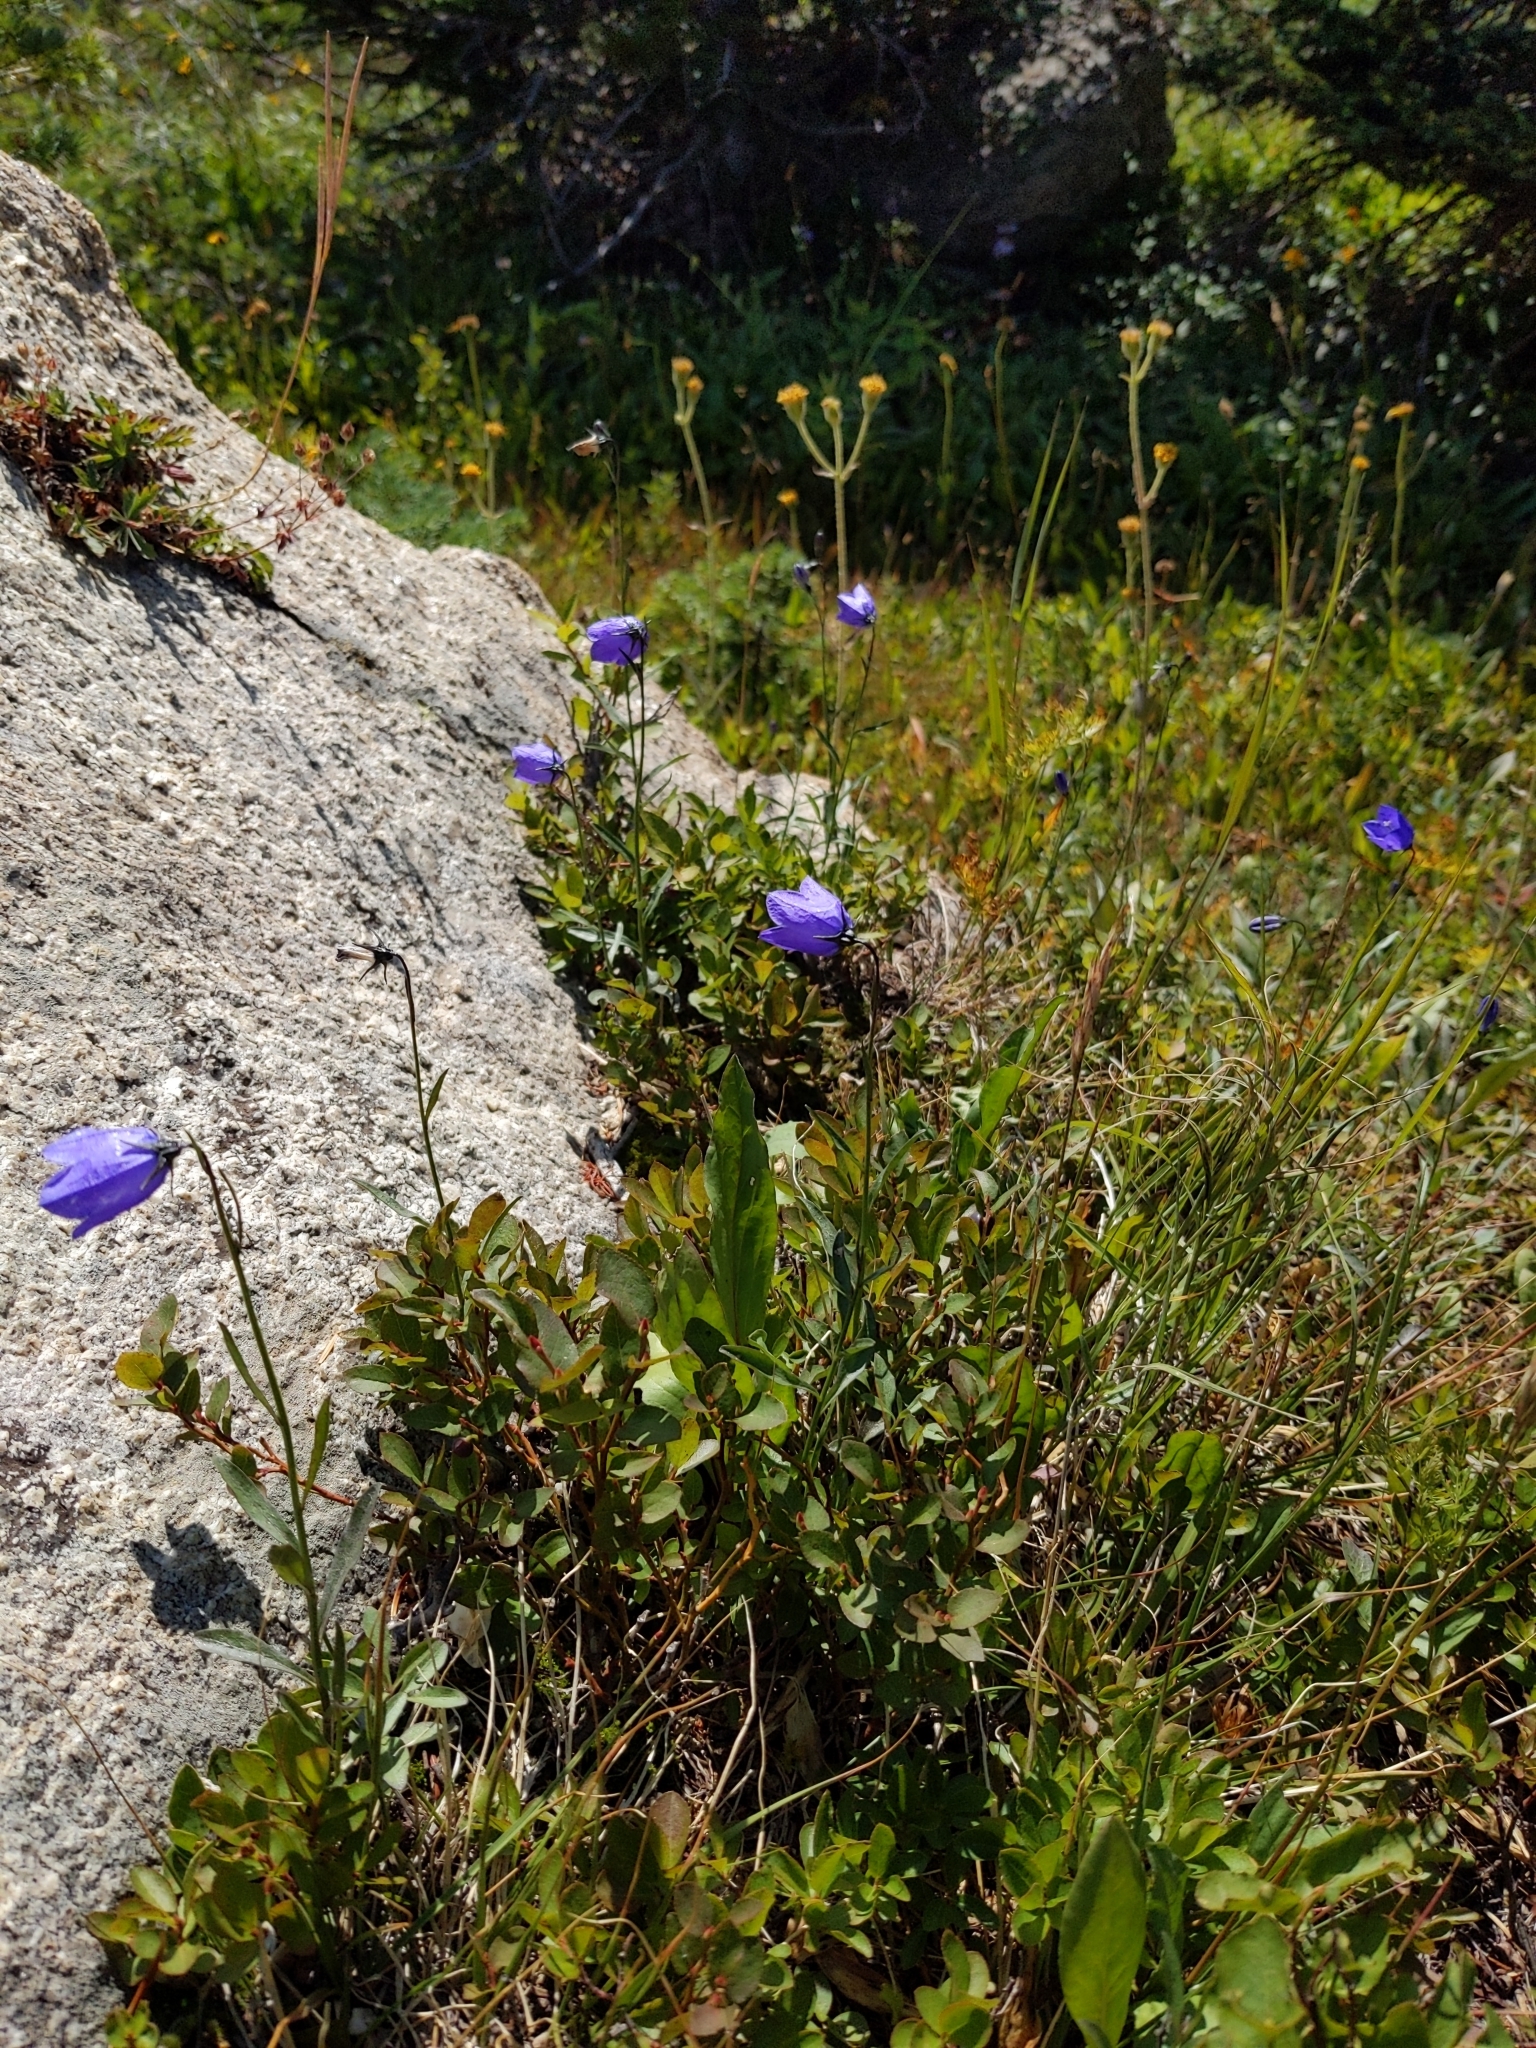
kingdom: Plantae
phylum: Tracheophyta
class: Magnoliopsida
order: Asterales
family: Campanulaceae
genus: Campanula
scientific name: Campanula petiolata
